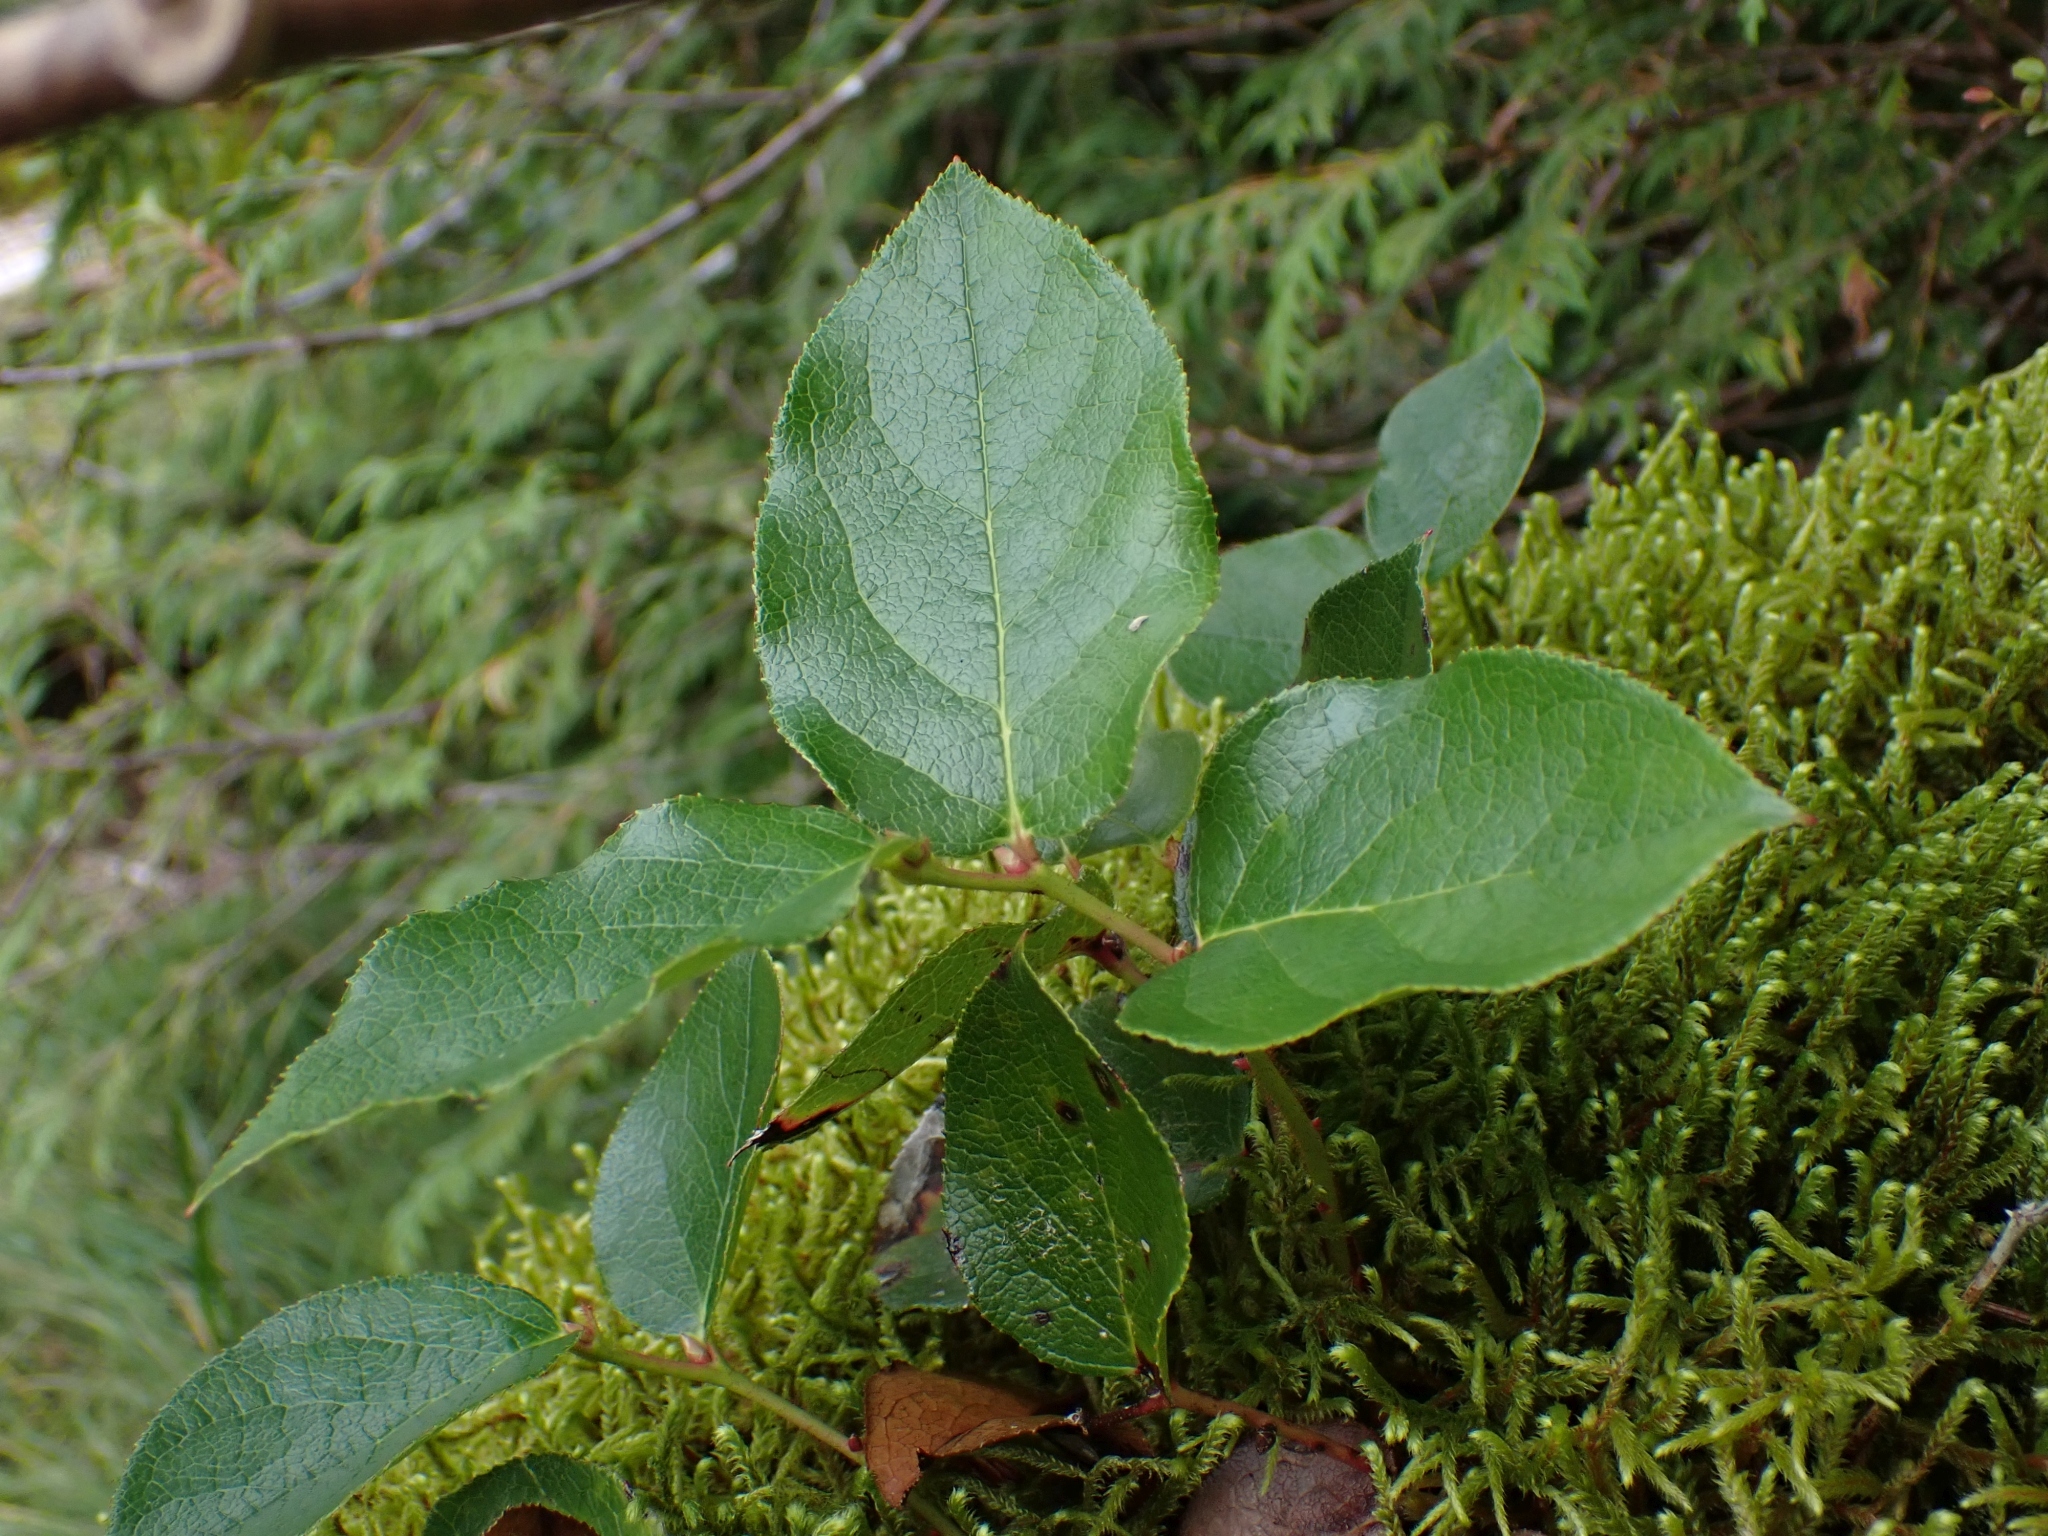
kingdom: Plantae
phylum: Tracheophyta
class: Magnoliopsida
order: Ericales
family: Ericaceae
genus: Gaultheria
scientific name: Gaultheria shallon
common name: Shallon
